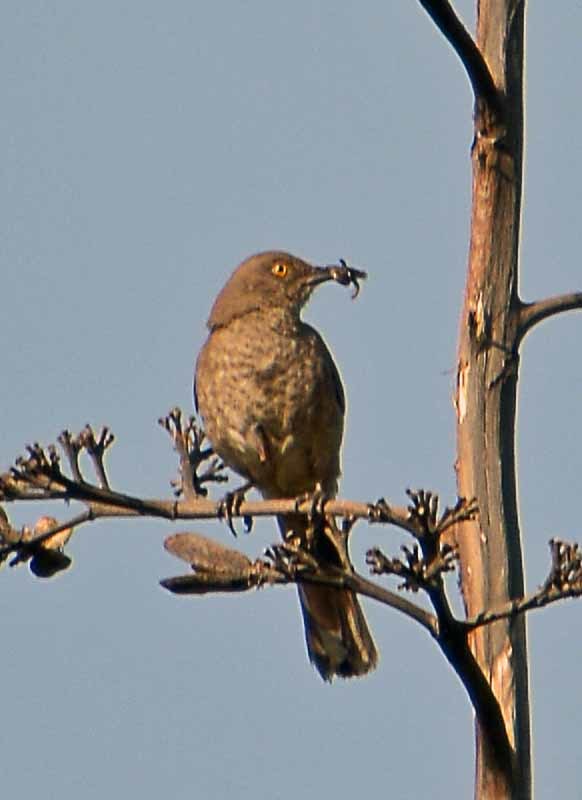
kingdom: Animalia
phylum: Chordata
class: Aves
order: Passeriformes
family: Mimidae
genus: Toxostoma
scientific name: Toxostoma curvirostre
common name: Curve-billed thrasher
